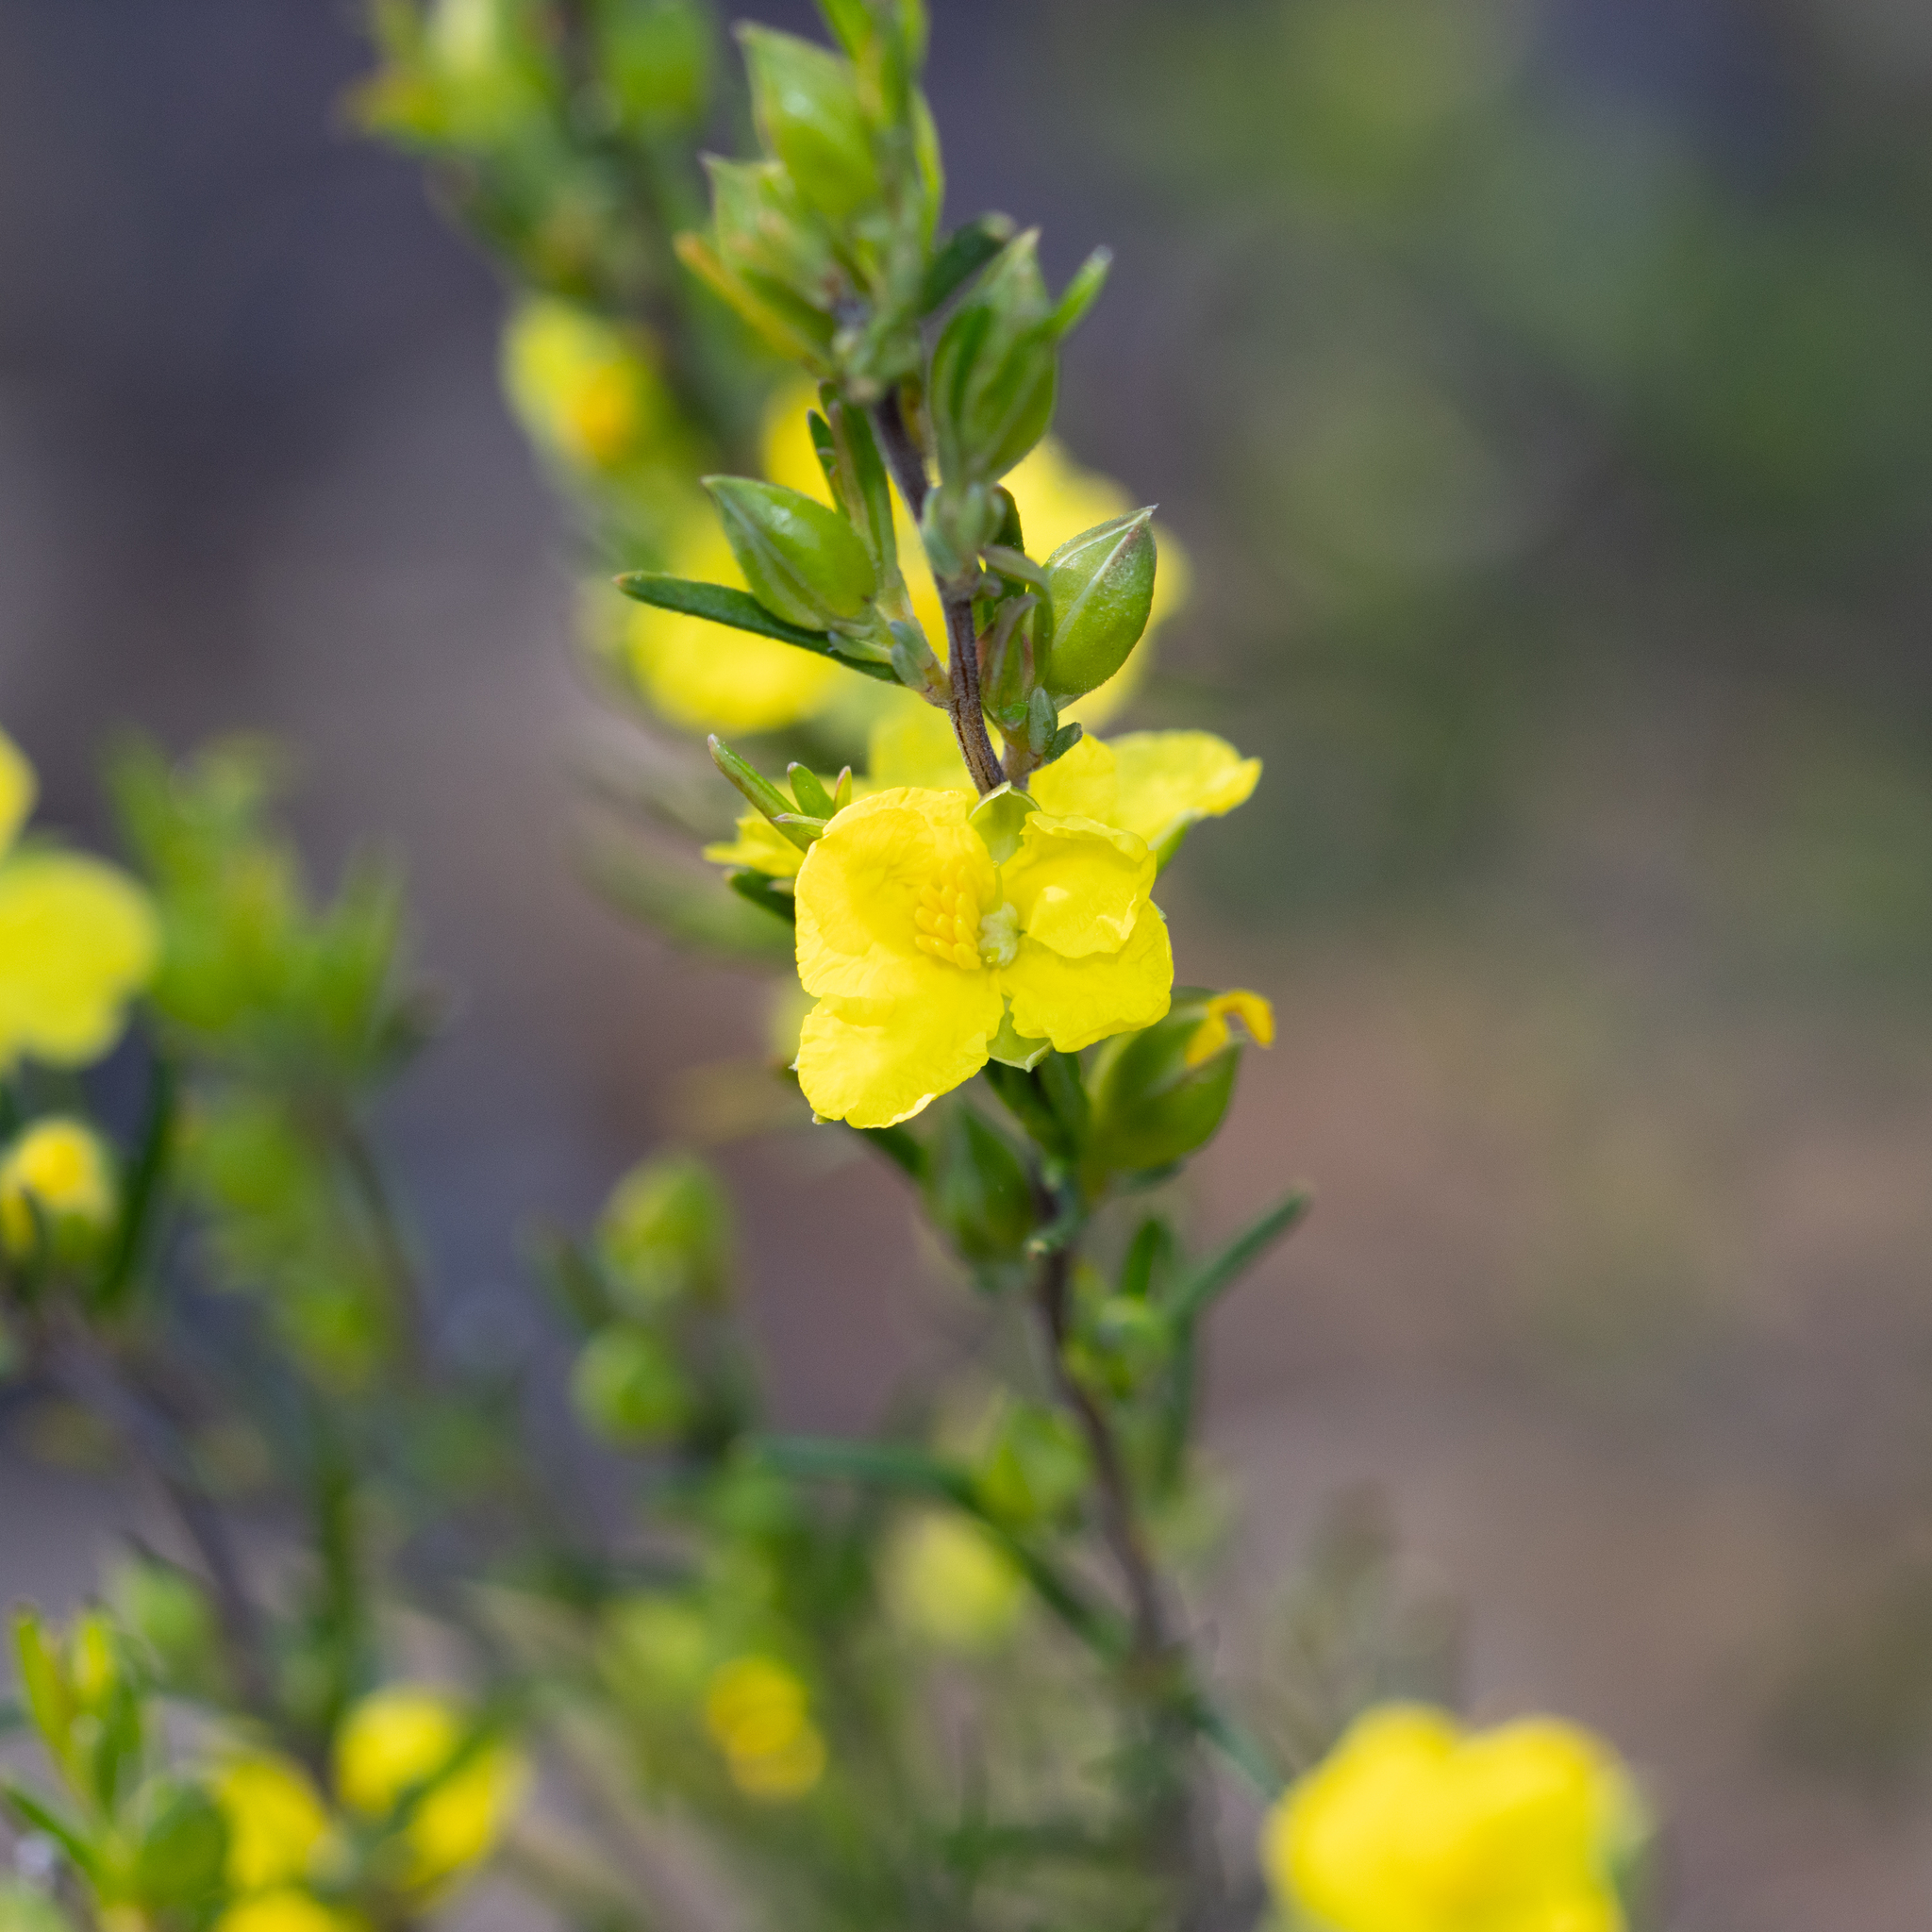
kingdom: Plantae
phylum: Tracheophyta
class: Magnoliopsida
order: Dilleniales
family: Dilleniaceae
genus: Hibbertia
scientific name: Hibbertia riparia
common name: Erect guinea-flower
